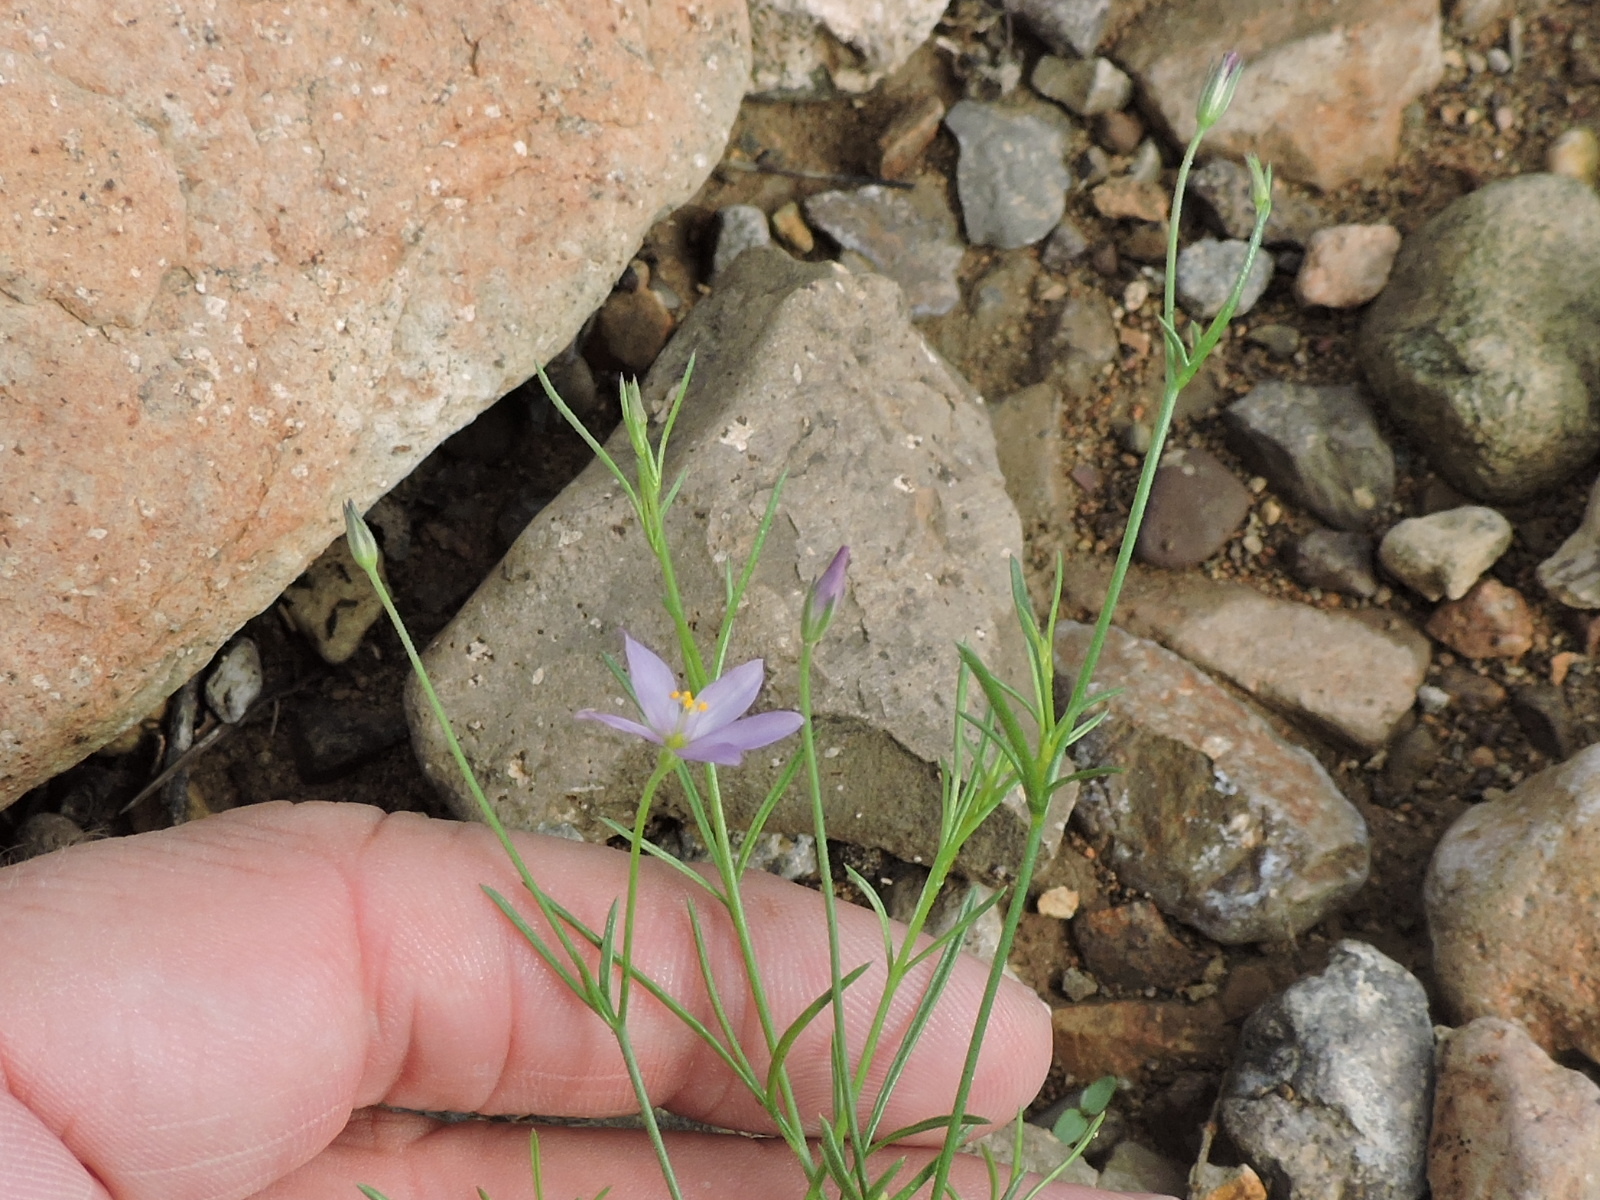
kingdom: Plantae
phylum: Tracheophyta
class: Magnoliopsida
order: Ericales
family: Polemoniaceae
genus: Giliastrum
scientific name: Giliastrum stewartii
